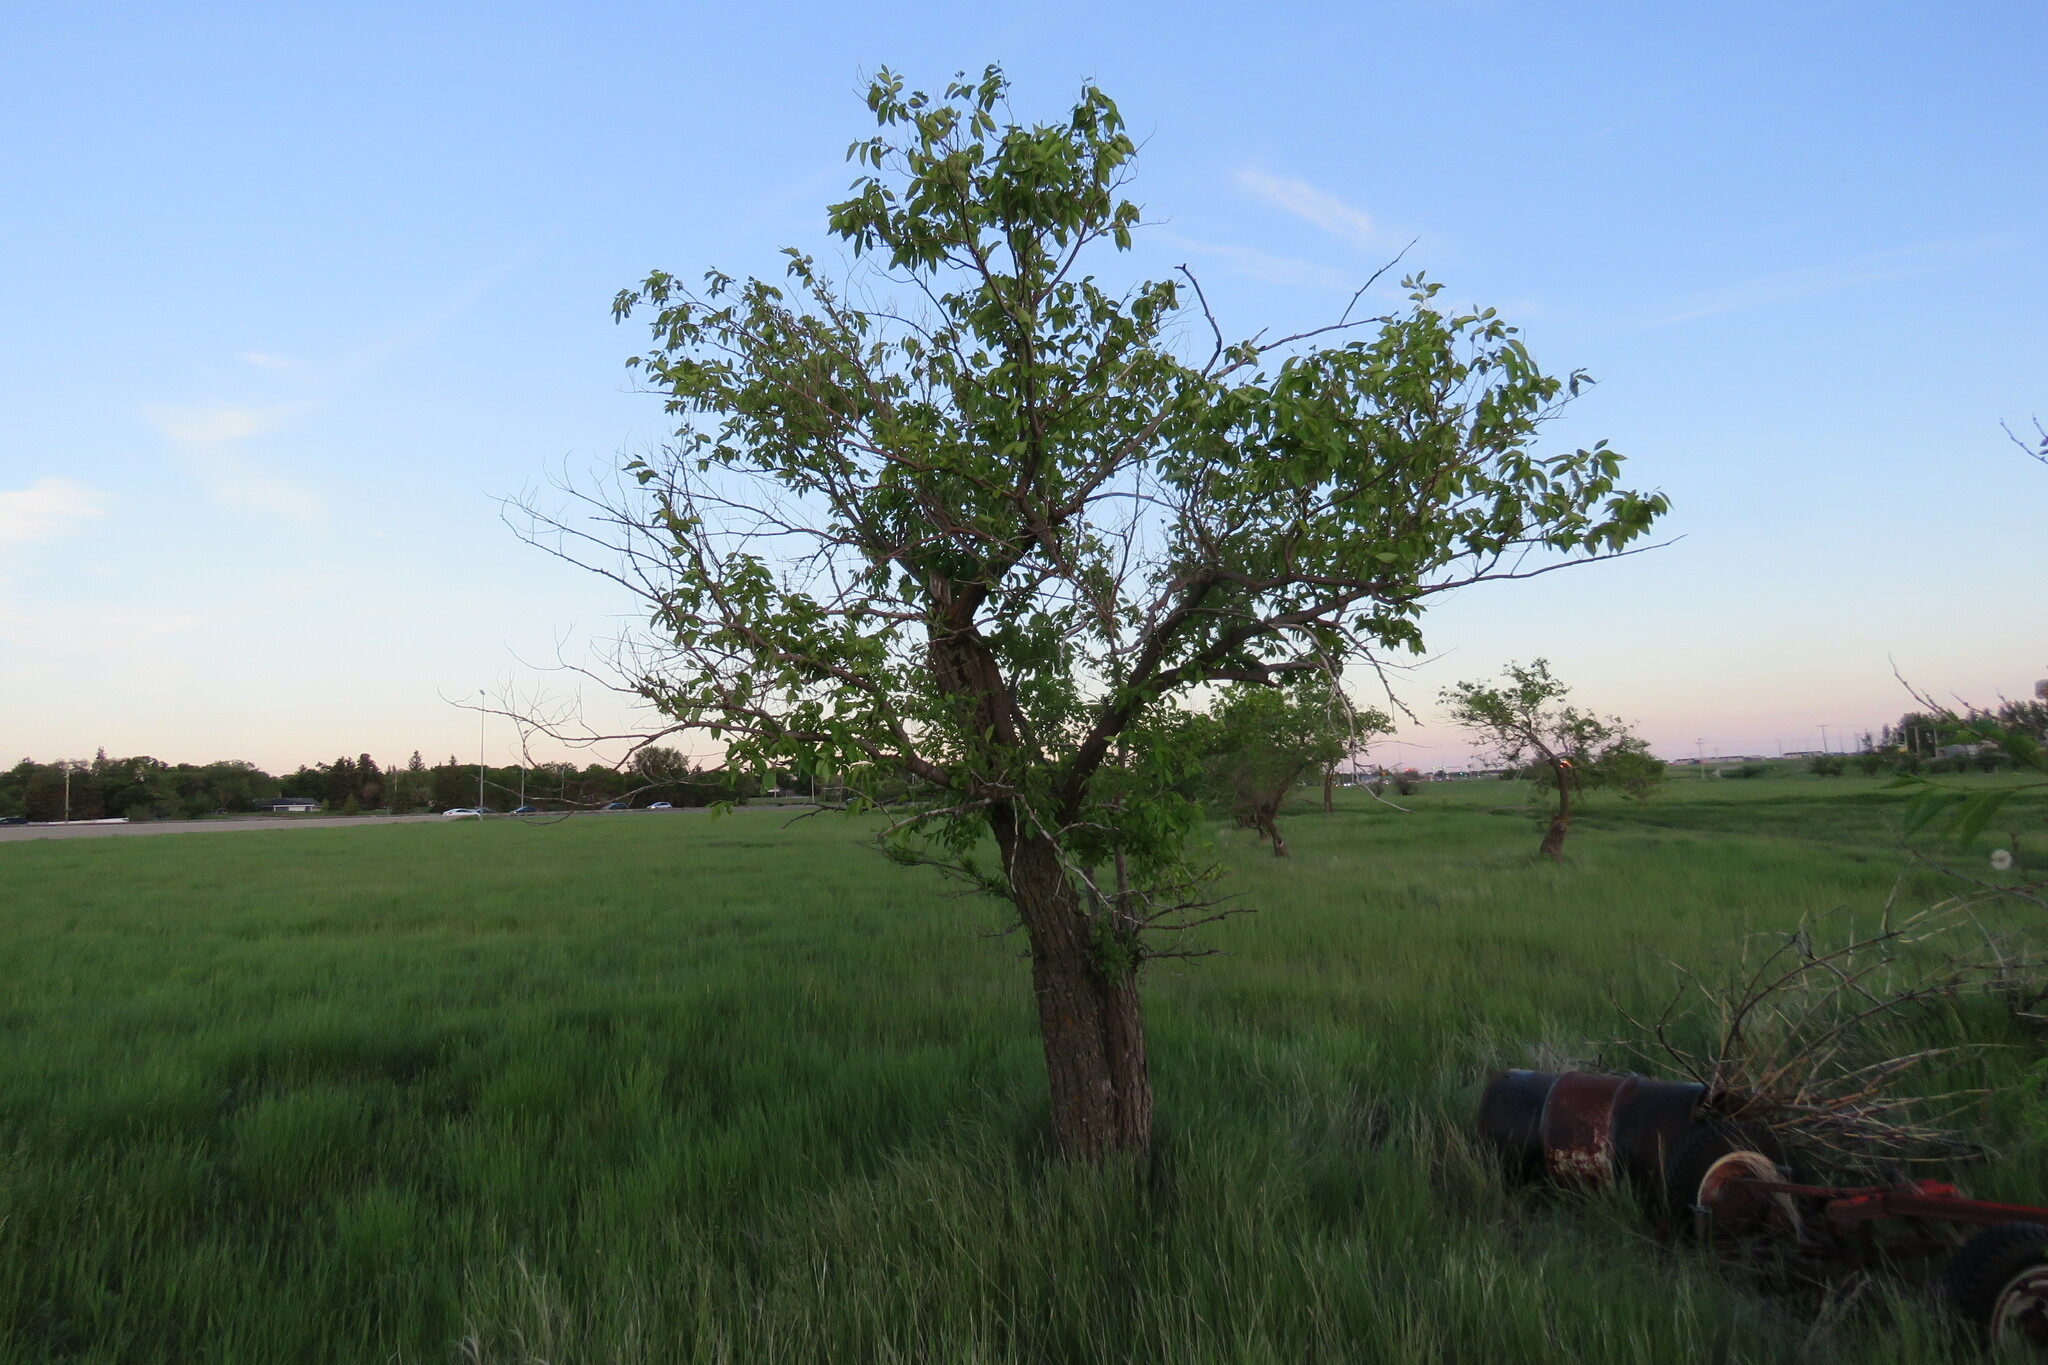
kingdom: Plantae
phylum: Tracheophyta
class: Magnoliopsida
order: Rosales
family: Ulmaceae
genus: Ulmus
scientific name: Ulmus pumila
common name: Siberian elm
